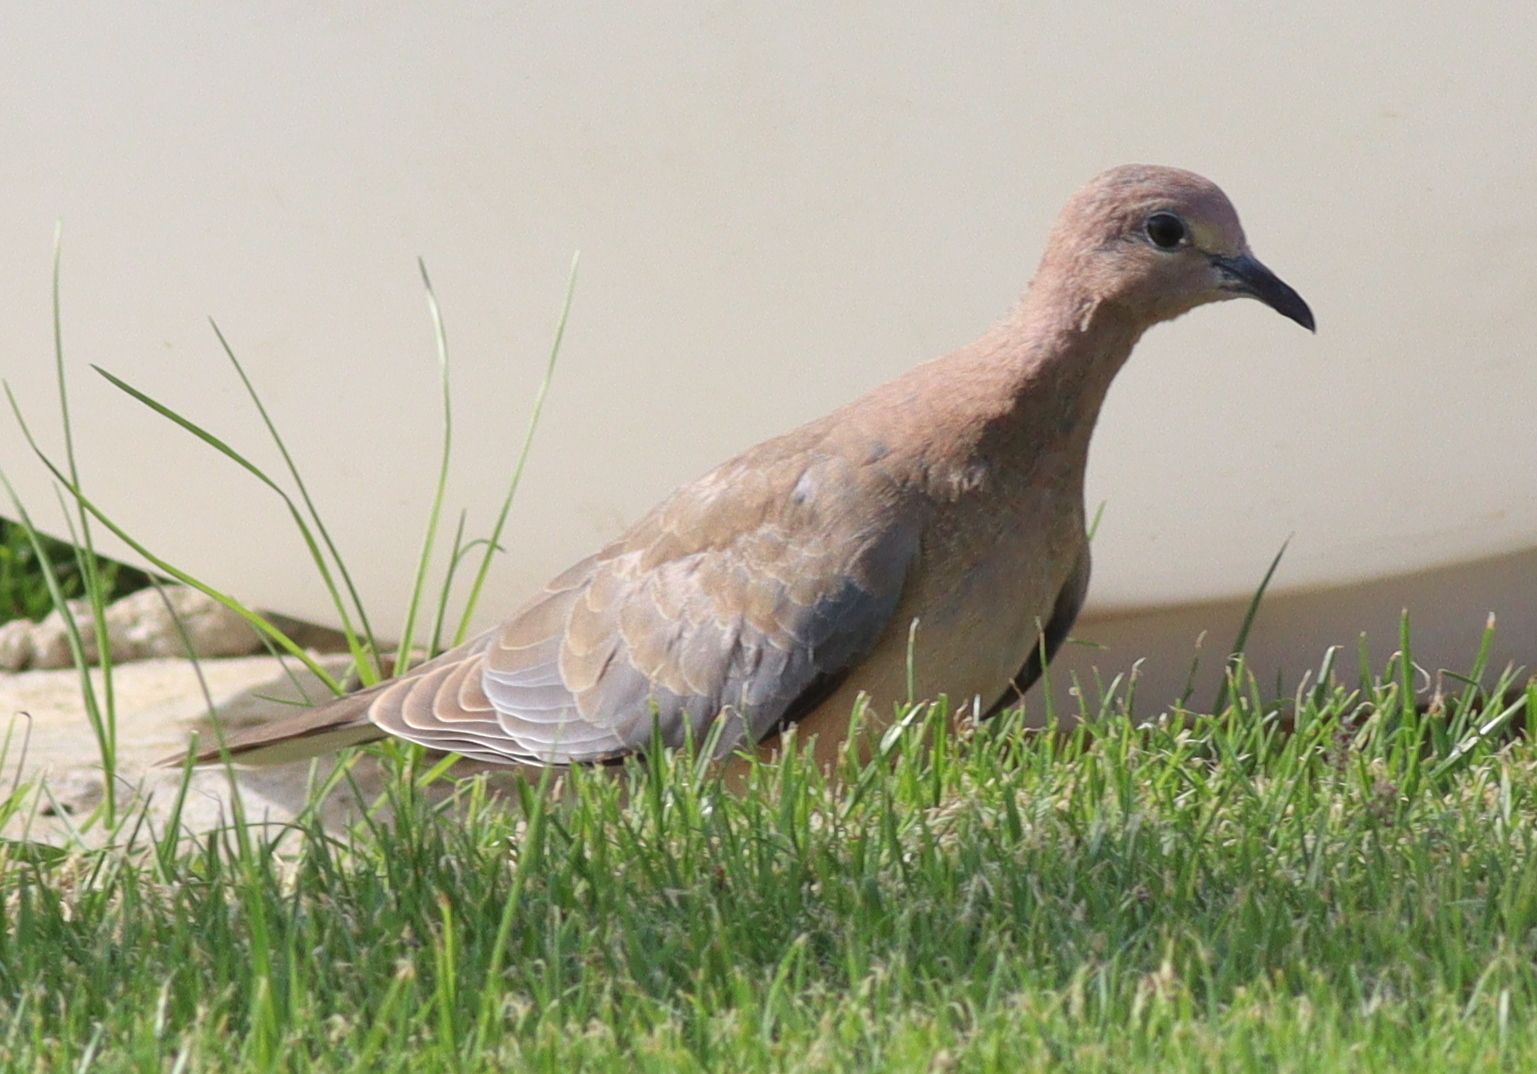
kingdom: Animalia
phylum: Chordata
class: Aves
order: Columbiformes
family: Columbidae
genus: Spilopelia
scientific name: Spilopelia senegalensis
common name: Laughing dove
